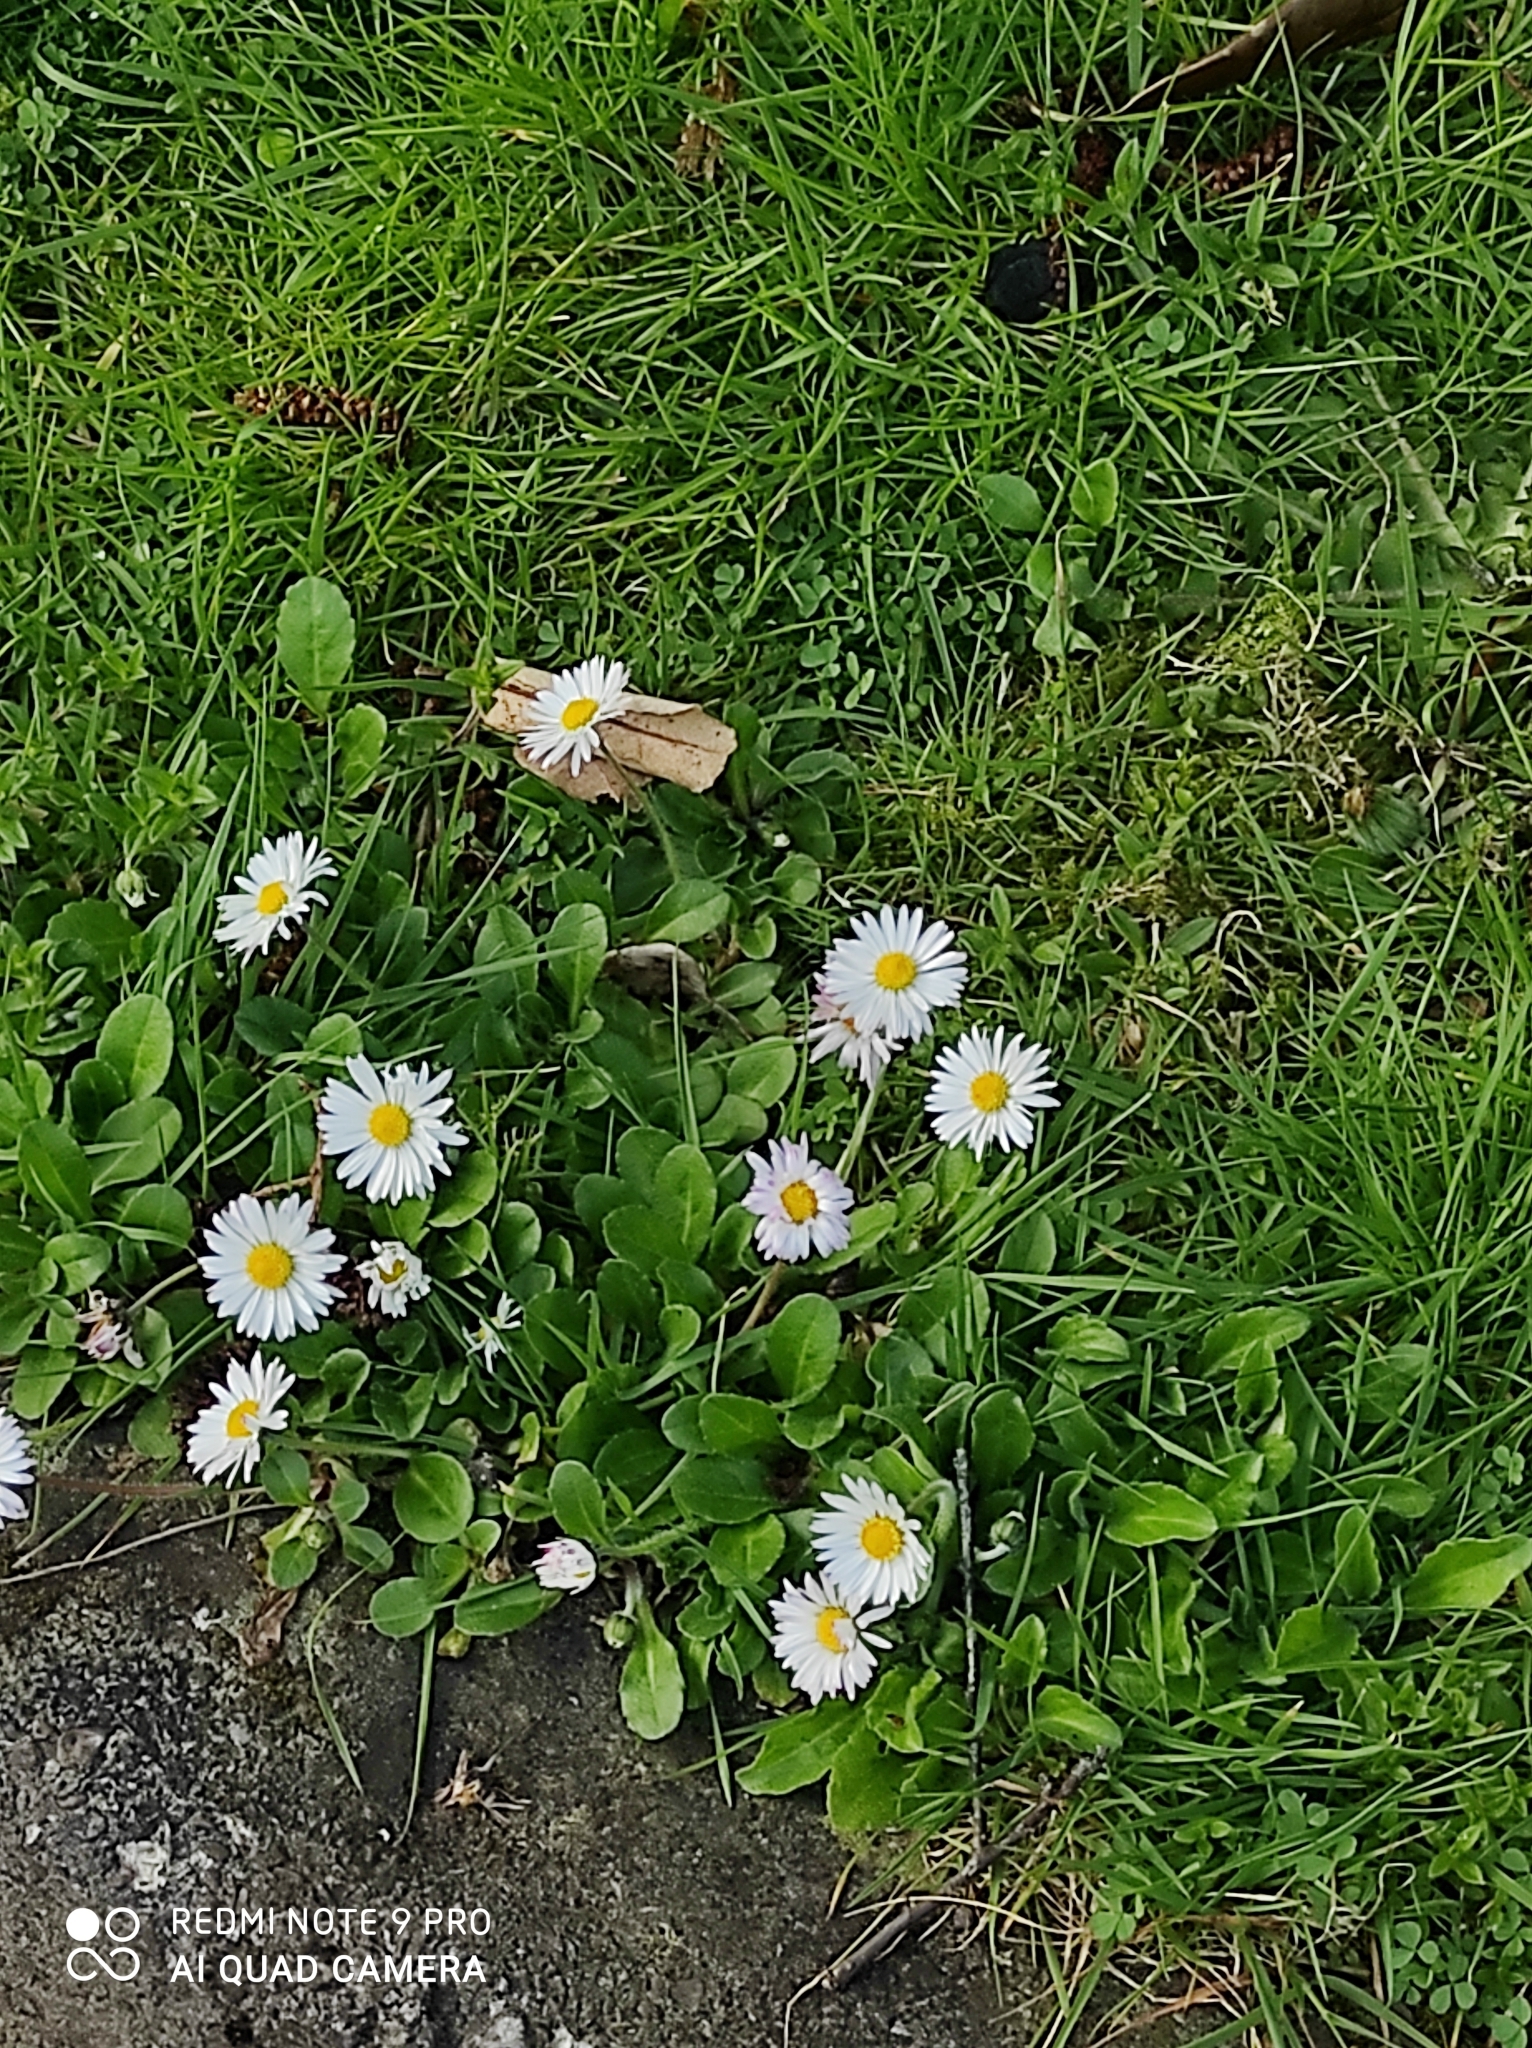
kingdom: Plantae
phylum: Tracheophyta
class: Magnoliopsida
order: Asterales
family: Asteraceae
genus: Bellis
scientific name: Bellis perennis
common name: Lawndaisy
